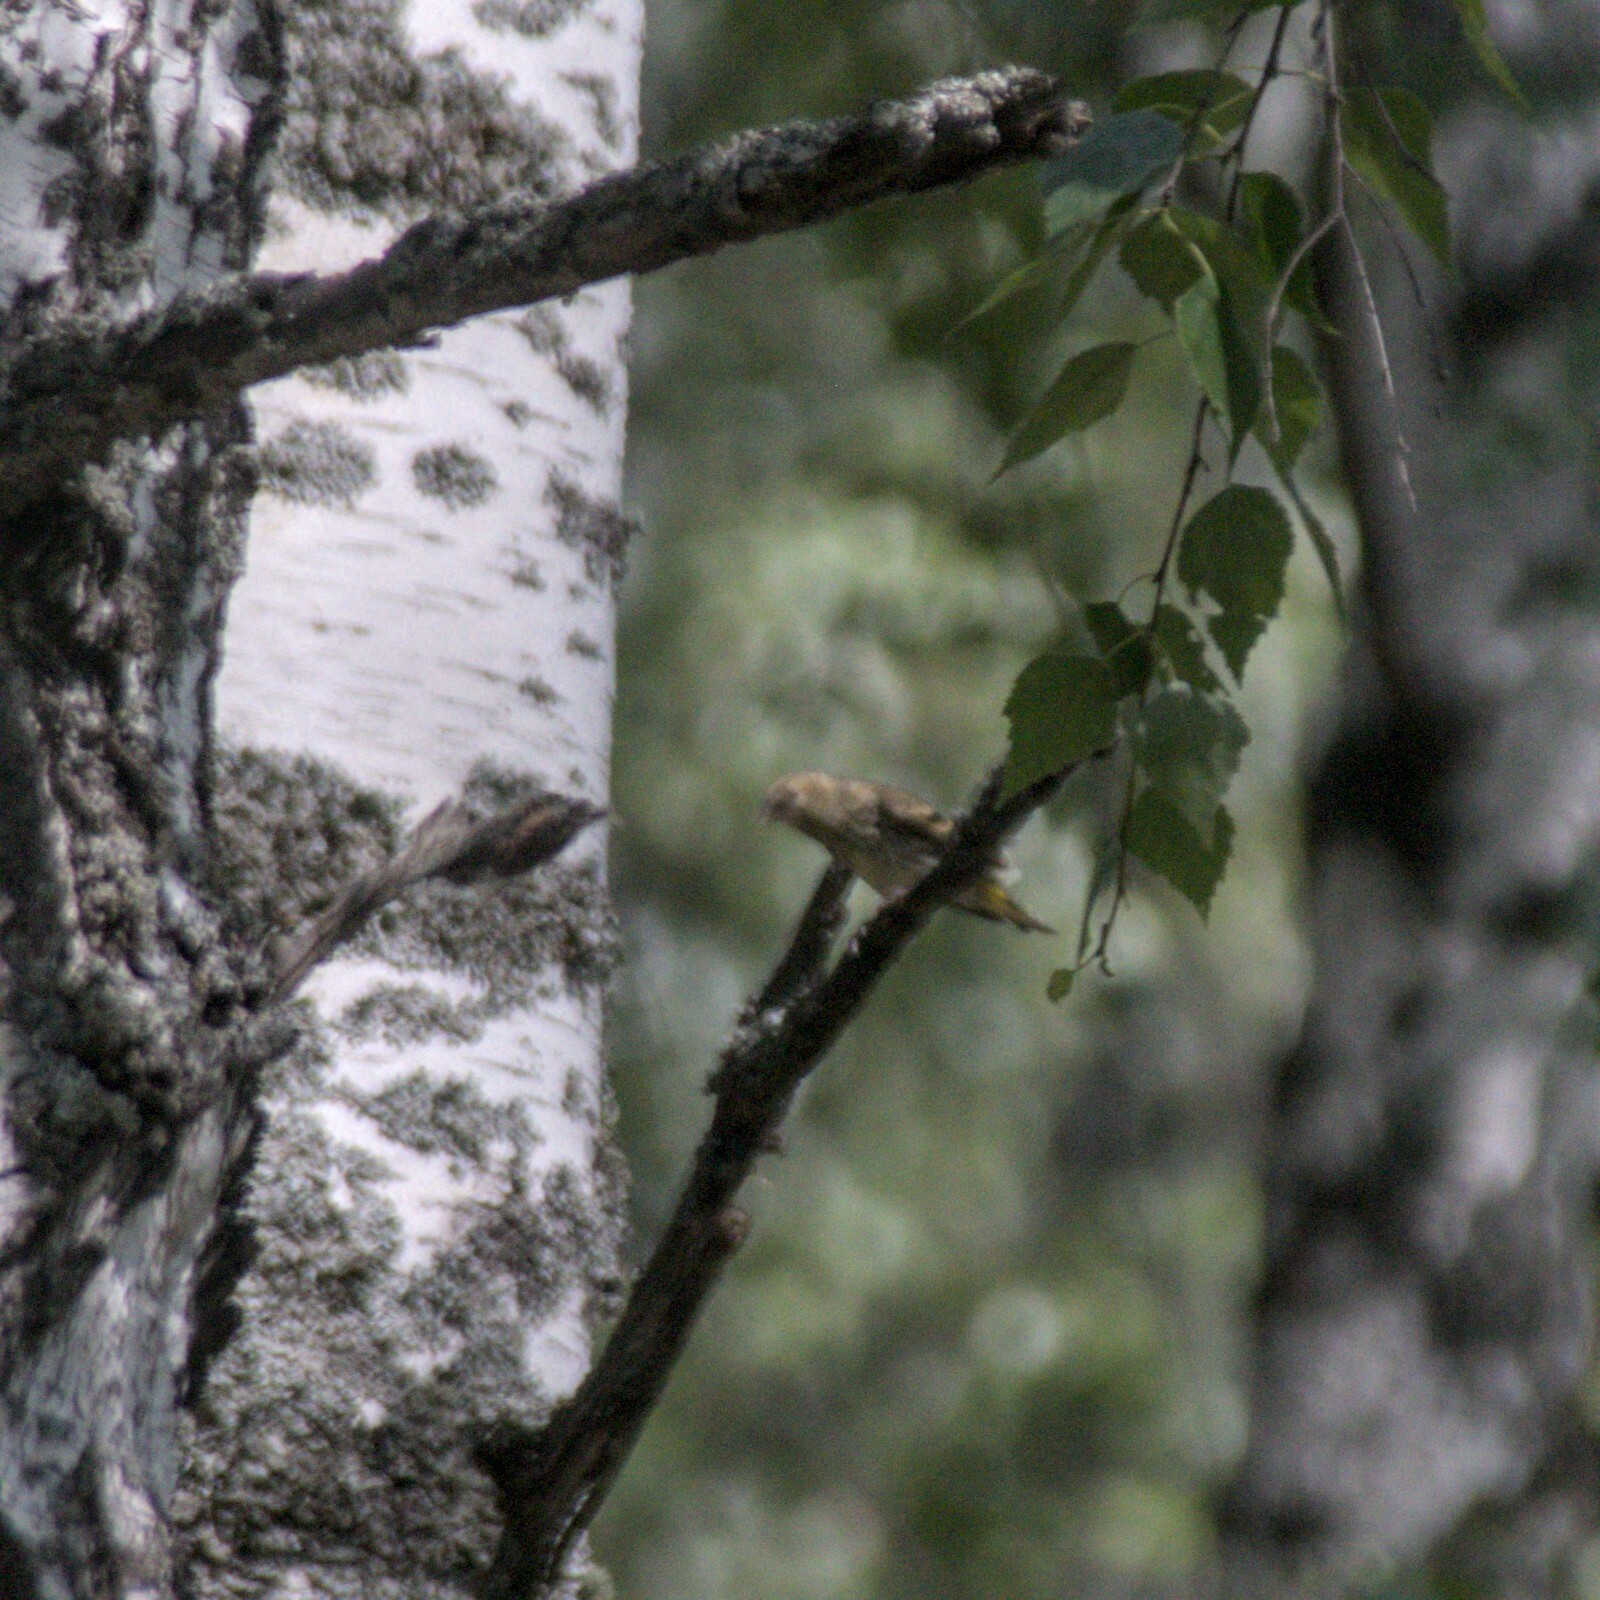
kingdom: Animalia
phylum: Chordata
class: Aves
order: Passeriformes
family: Fringillidae
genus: Spinus
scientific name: Spinus spinus
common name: Eurasian siskin
